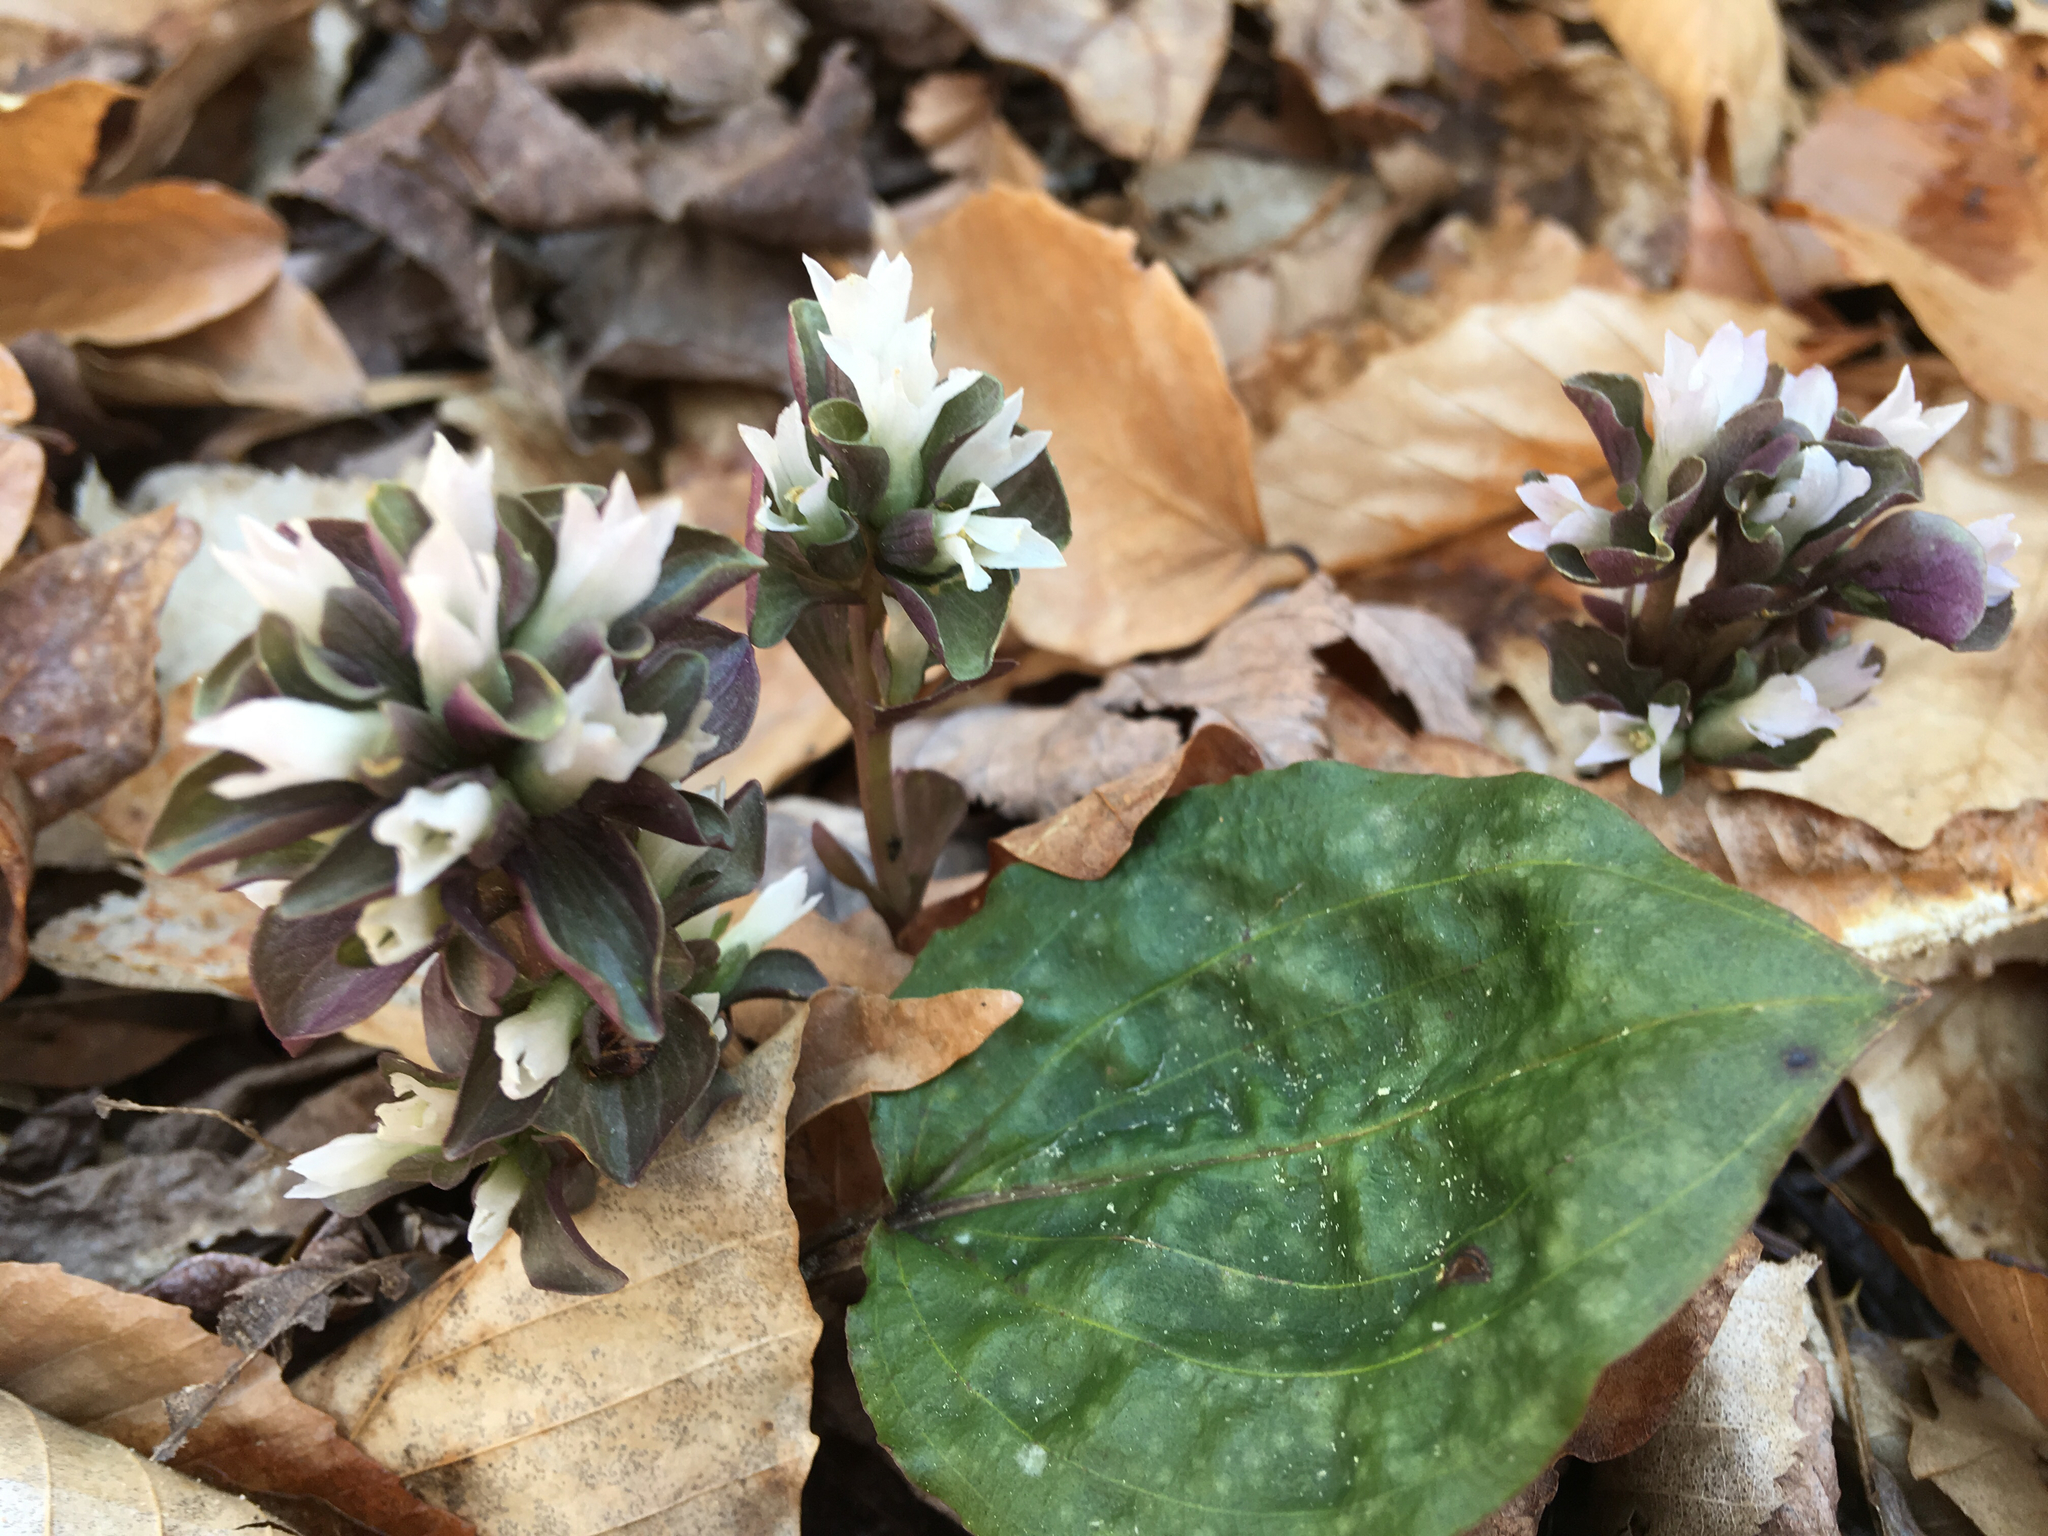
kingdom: Plantae
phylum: Tracheophyta
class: Magnoliopsida
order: Gentianales
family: Gentianaceae
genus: Obolaria
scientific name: Obolaria virginica
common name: Pennywort
